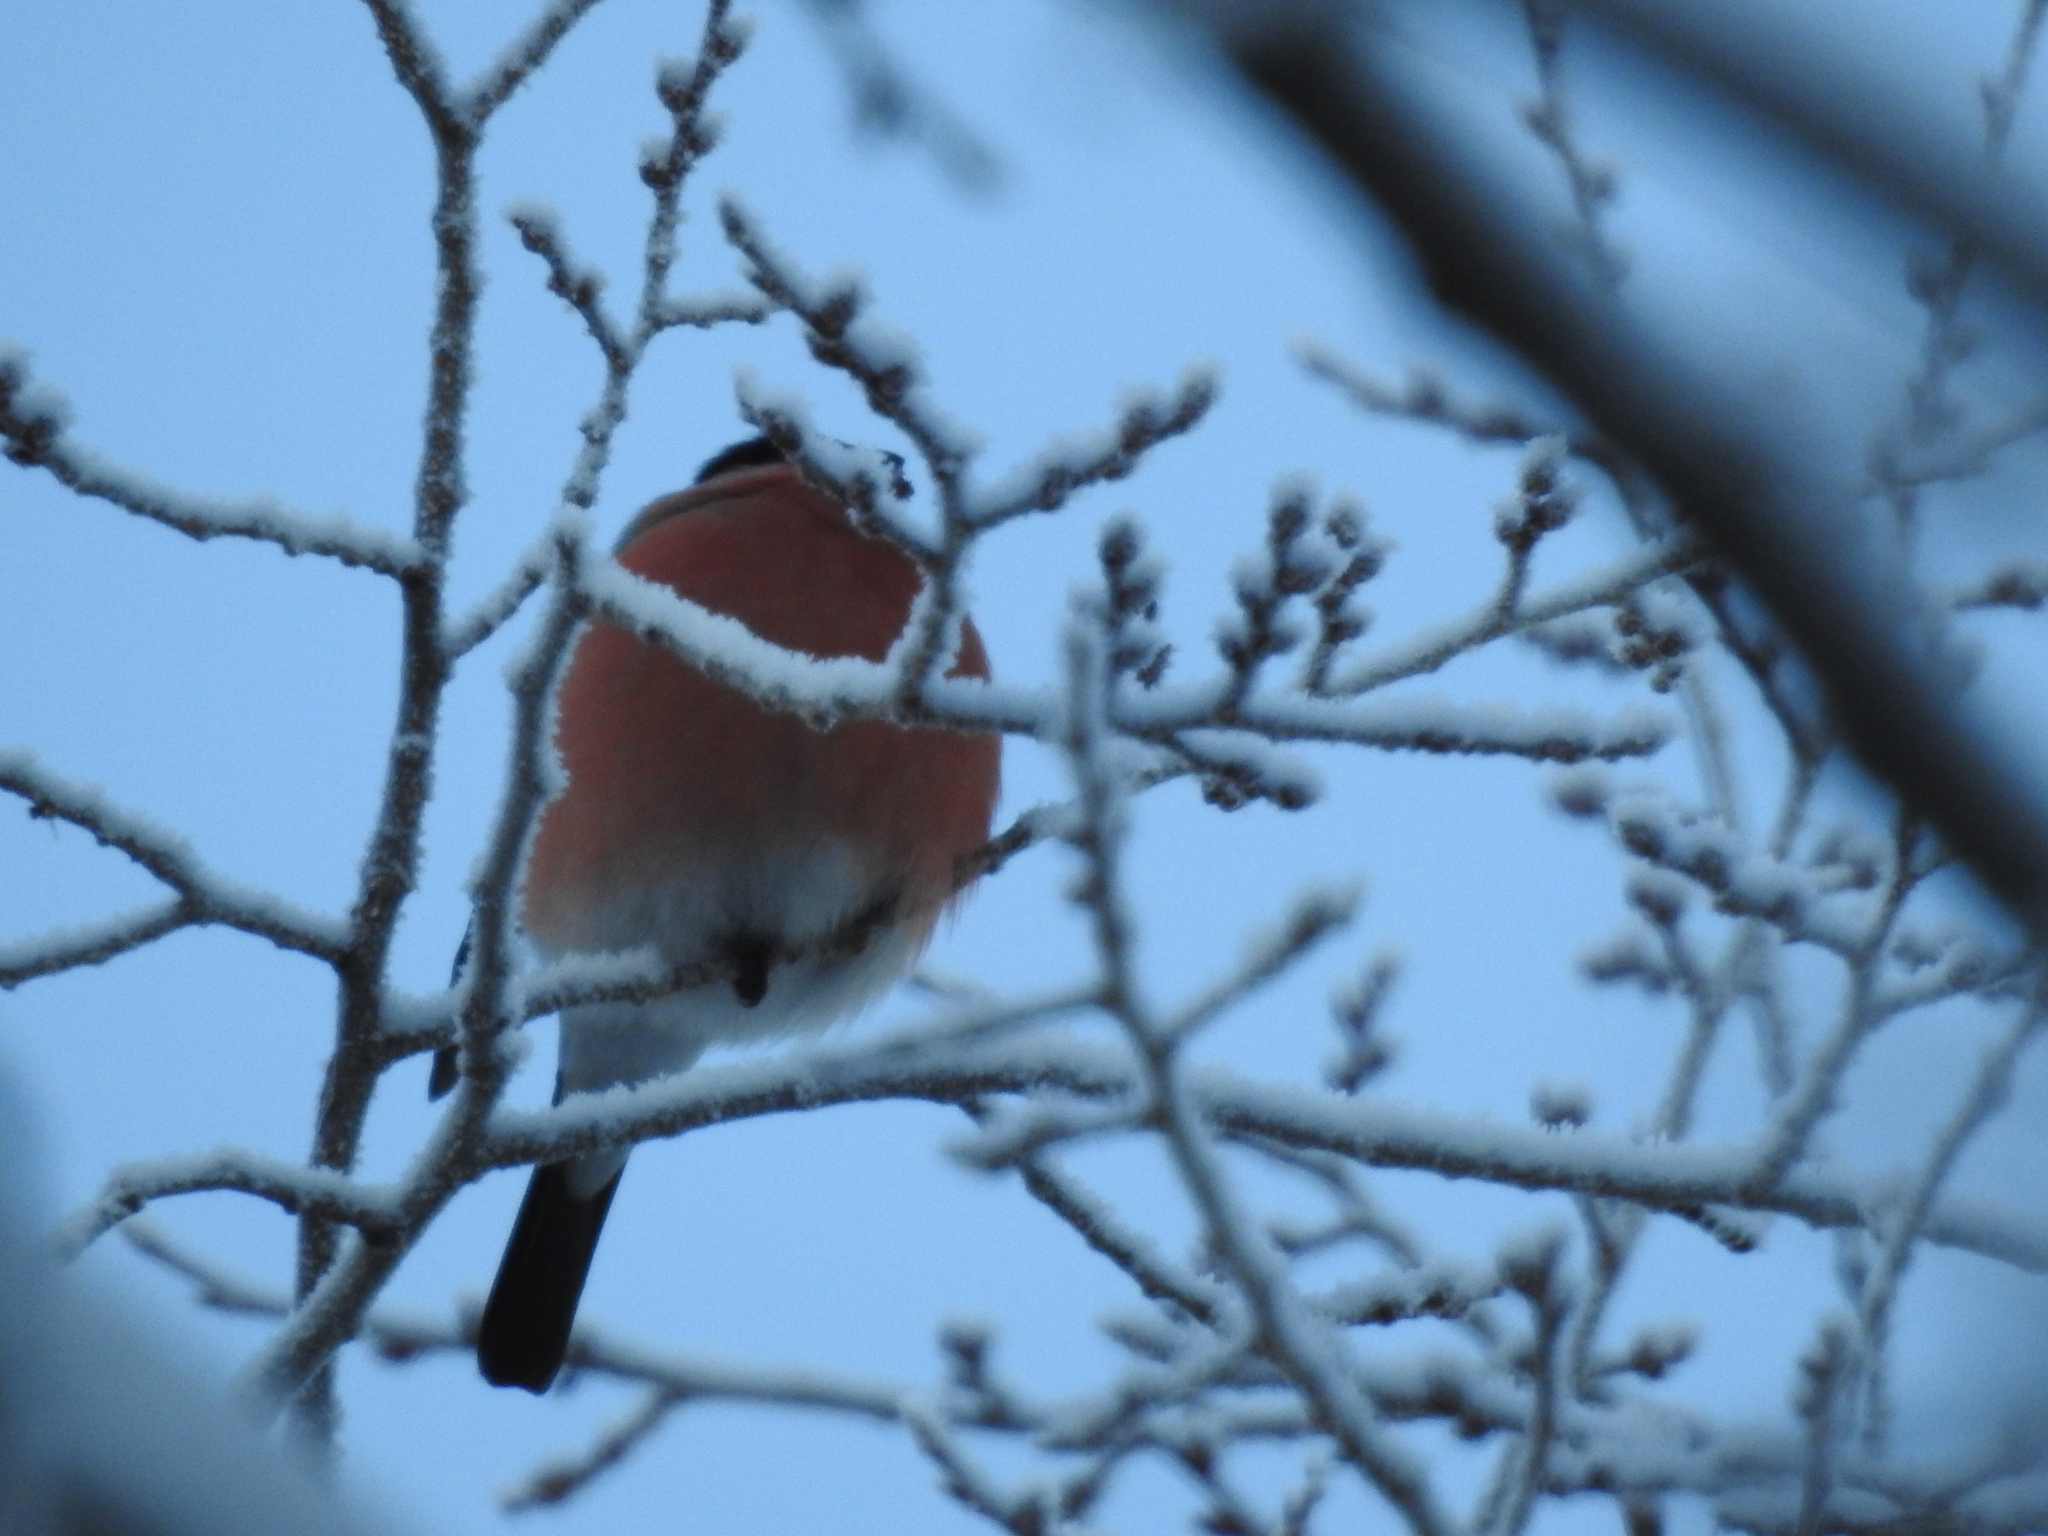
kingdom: Animalia
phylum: Chordata
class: Aves
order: Passeriformes
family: Fringillidae
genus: Pyrrhula
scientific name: Pyrrhula pyrrhula
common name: Eurasian bullfinch
